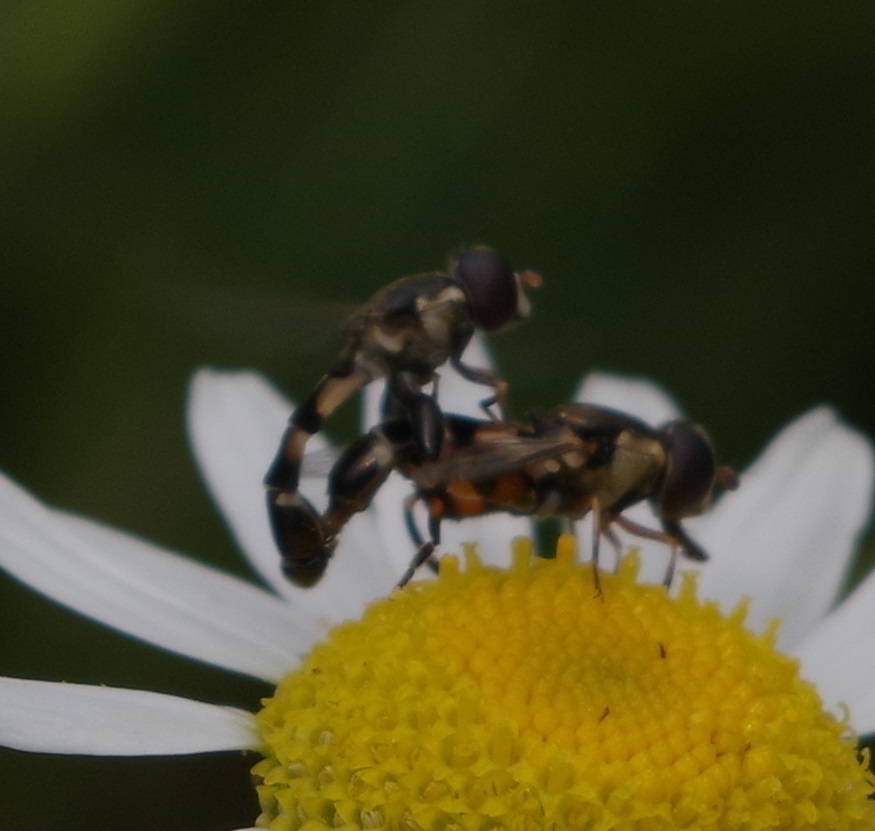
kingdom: Animalia
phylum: Arthropoda
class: Insecta
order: Diptera
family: Syrphidae
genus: Syritta
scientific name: Syritta pipiens
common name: Hover fly
